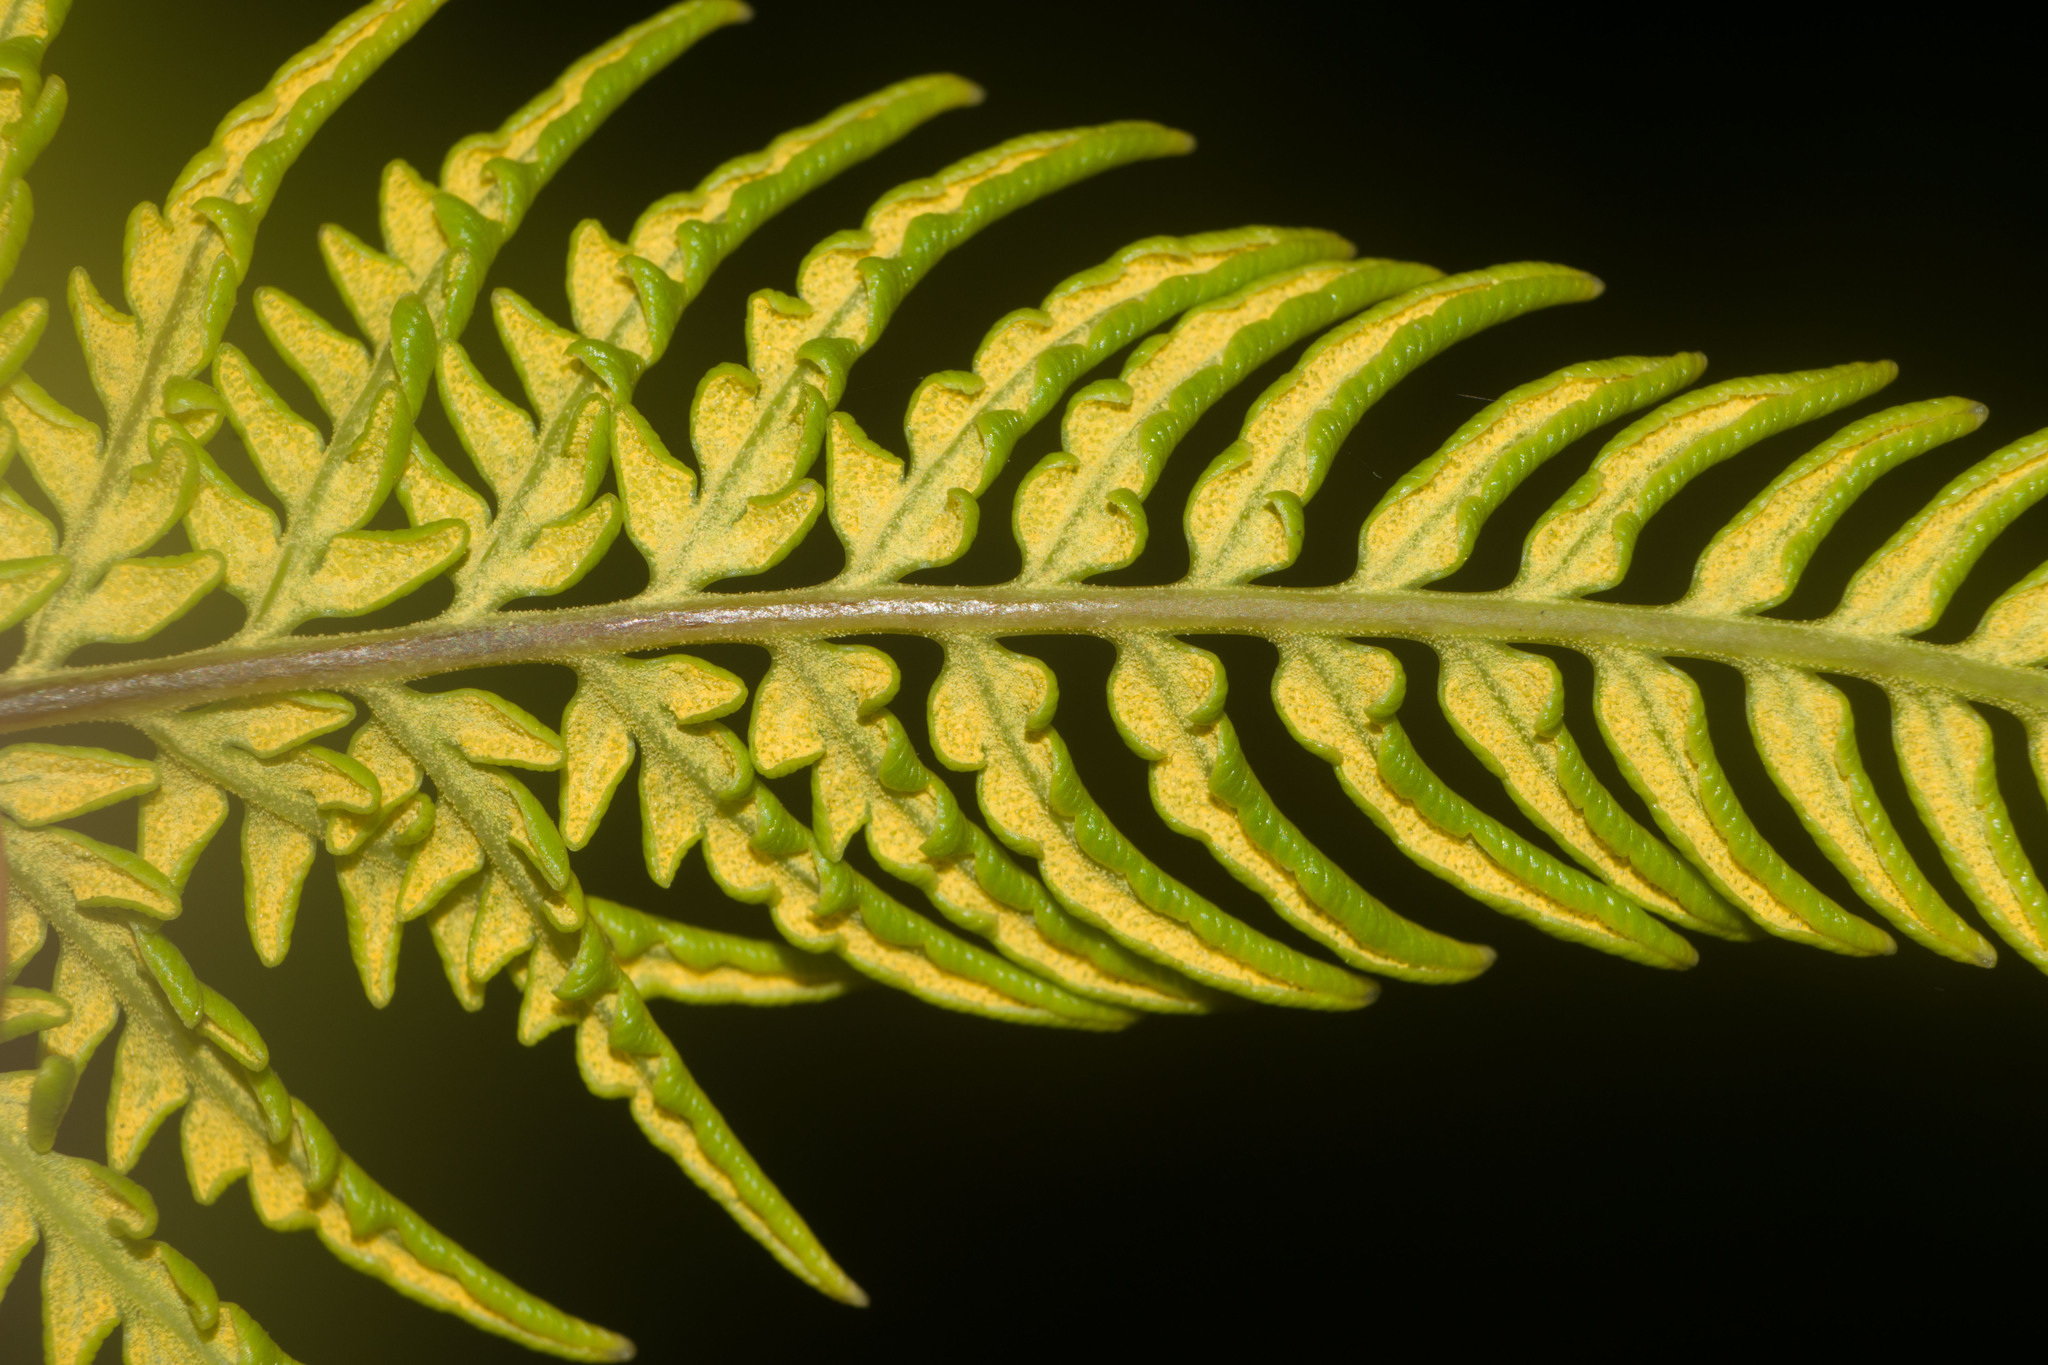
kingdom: Plantae
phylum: Tracheophyta
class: Polypodiopsida
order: Polypodiales
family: Pteridaceae
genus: Pityrogramma
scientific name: Pityrogramma austroamericana
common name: Leatherleaf goldback fern
